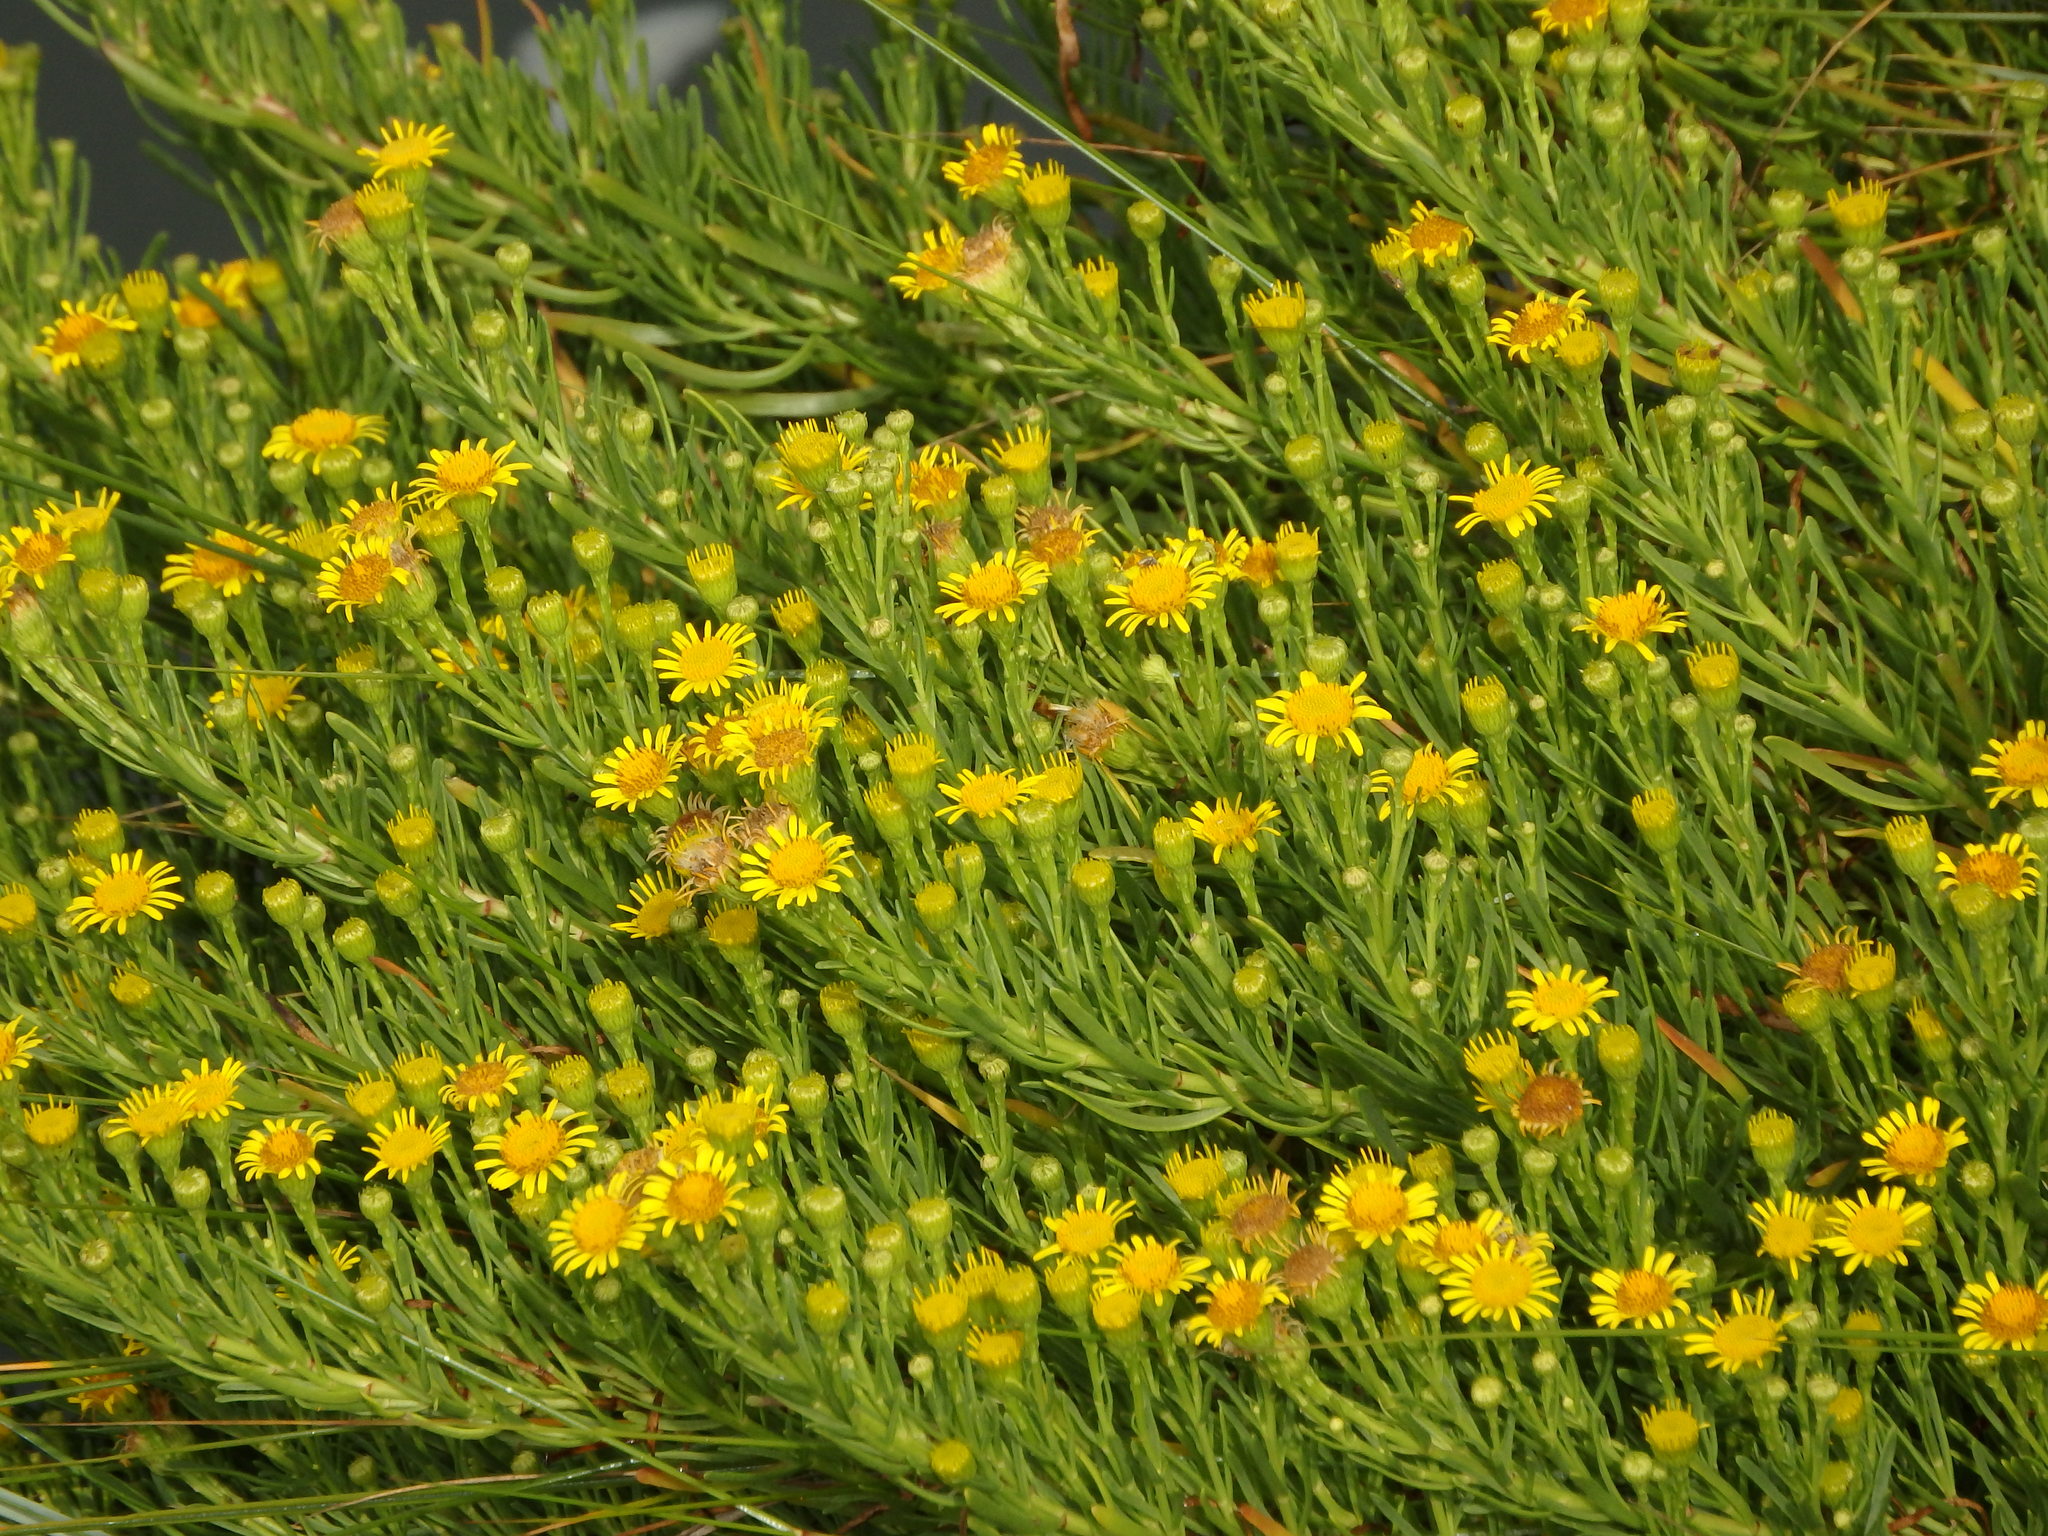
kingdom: Plantae
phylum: Tracheophyta
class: Magnoliopsida
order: Asterales
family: Asteraceae
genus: Limbarda
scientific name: Limbarda crithmoides
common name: Golden samphire
